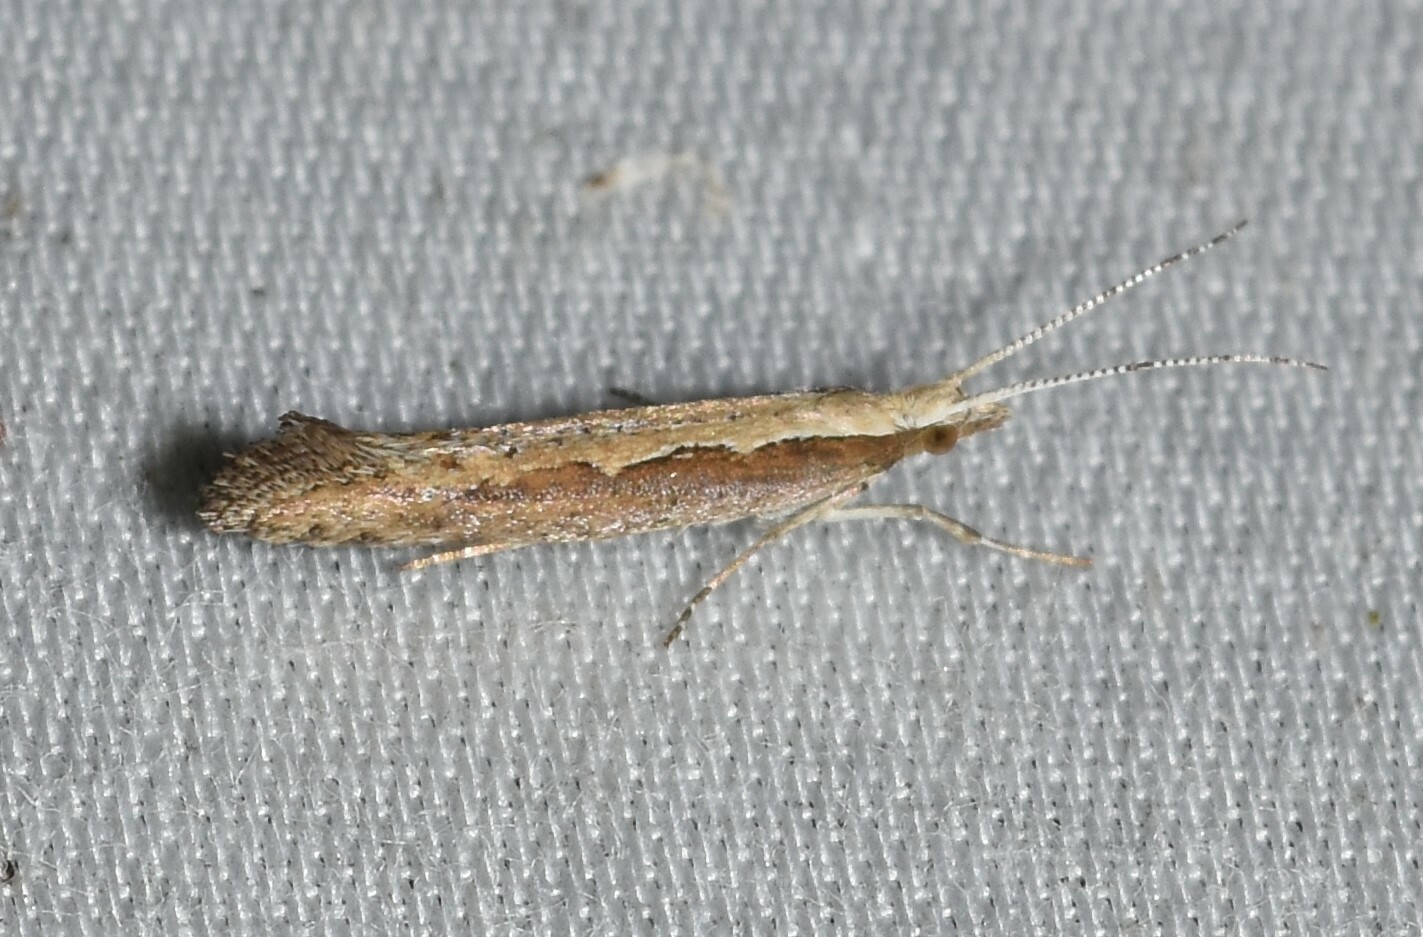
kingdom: Animalia
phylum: Arthropoda
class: Insecta
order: Lepidoptera
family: Plutellidae
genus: Plutella
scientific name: Plutella xylostella
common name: Diamond-back moth
